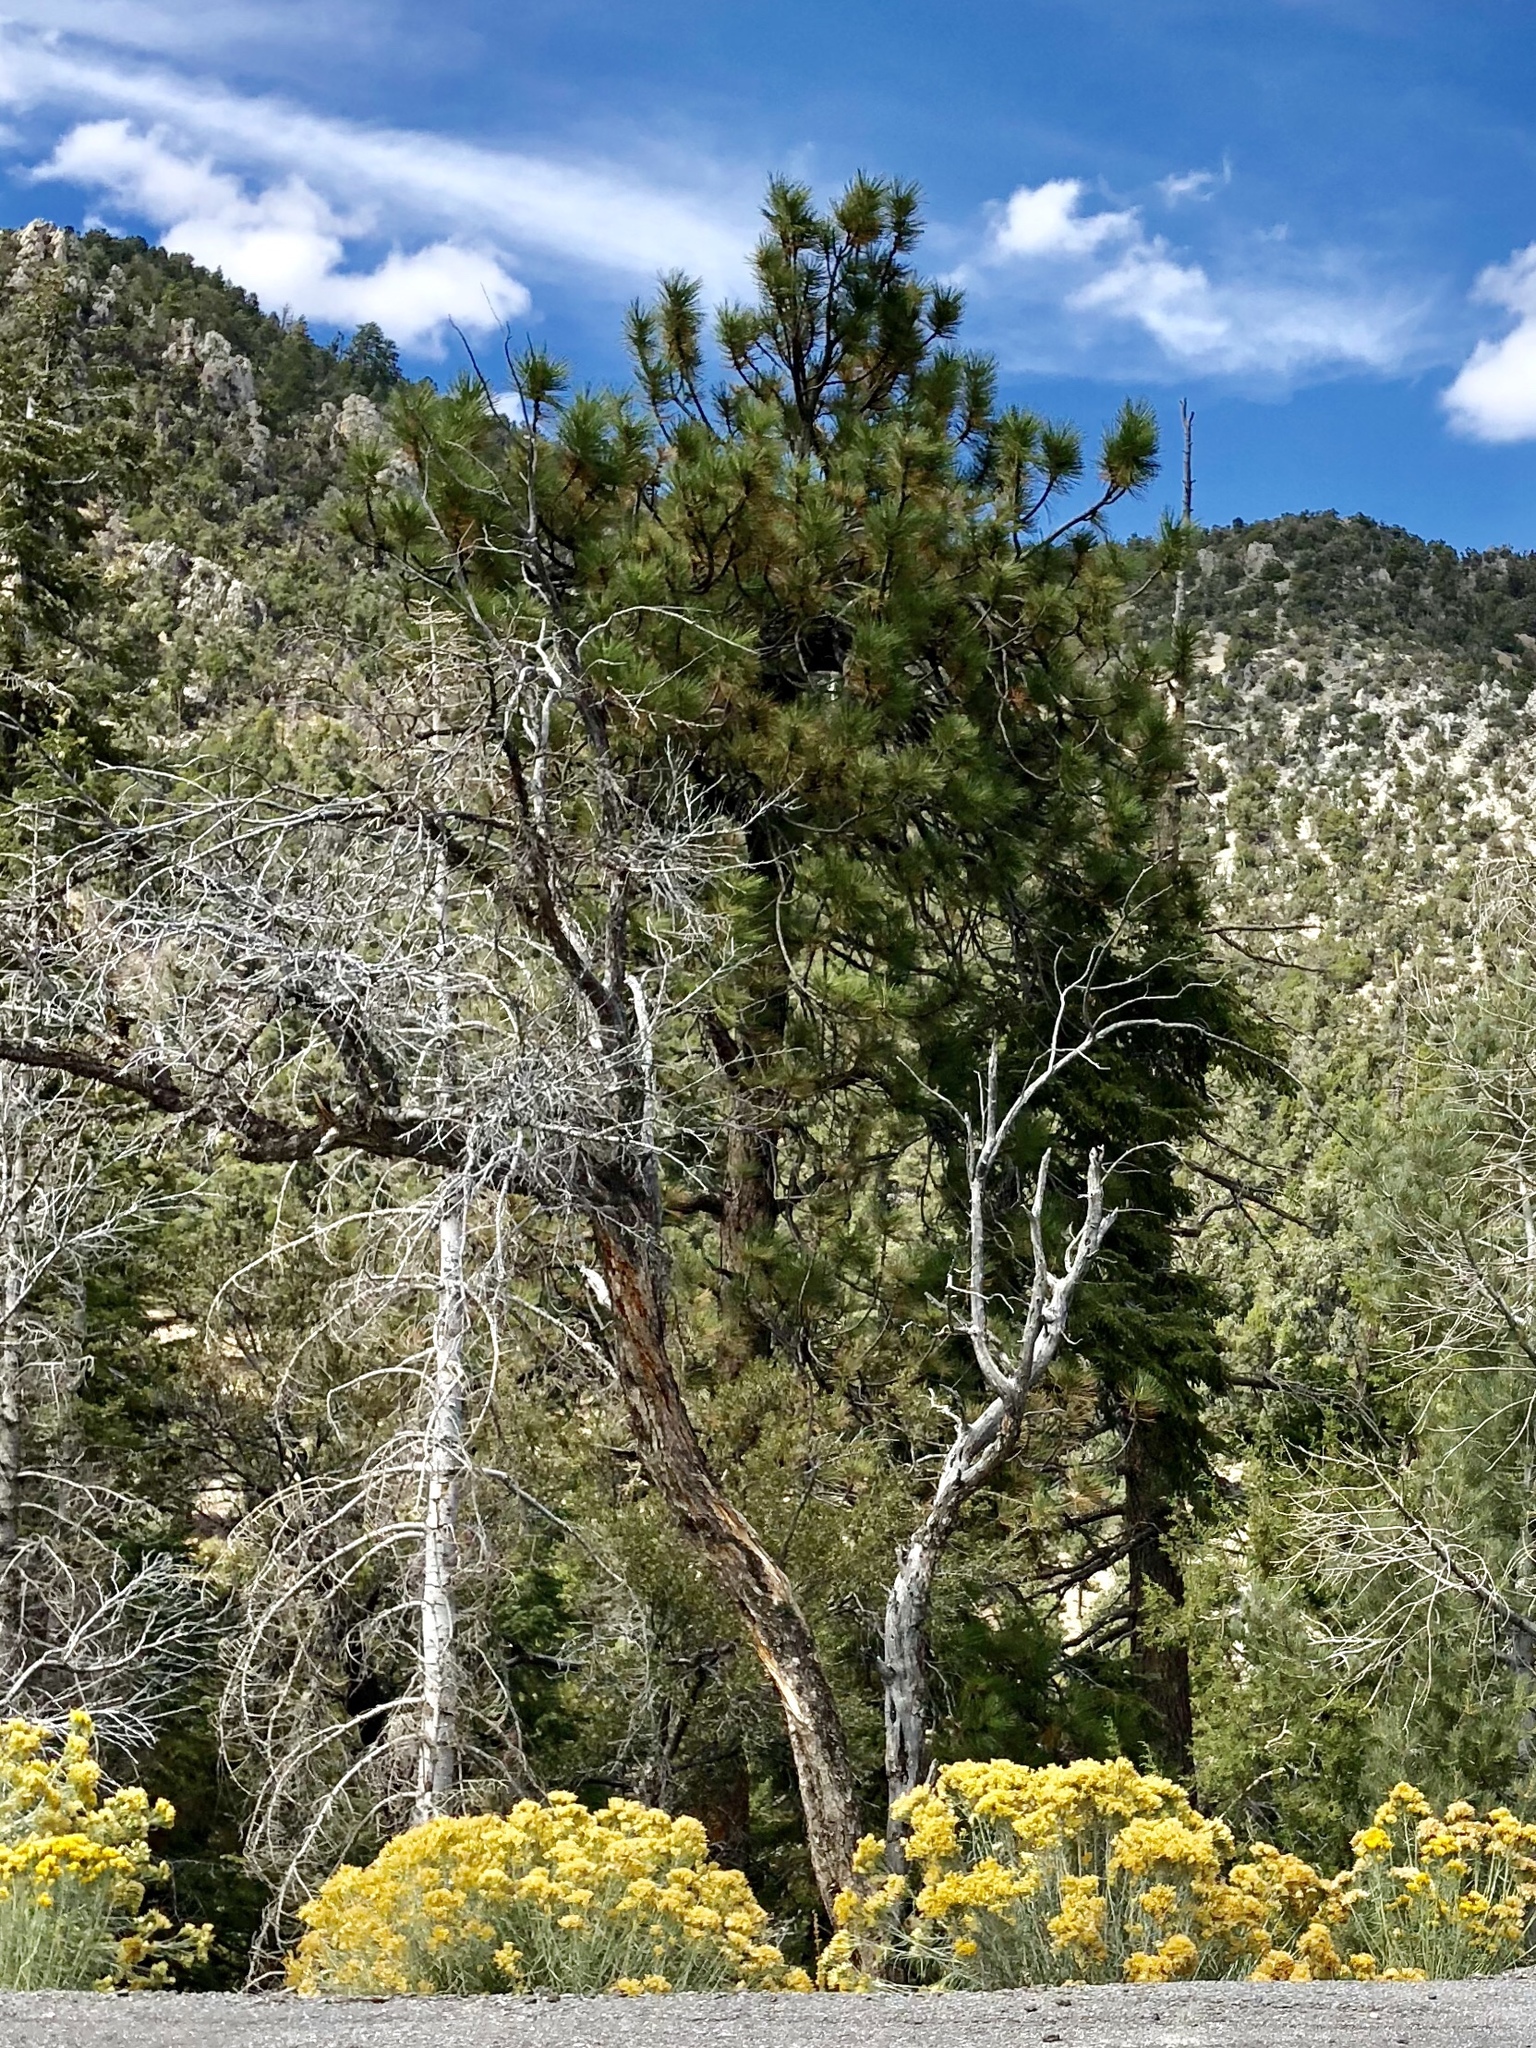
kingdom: Plantae
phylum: Tracheophyta
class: Pinopsida
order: Pinales
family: Pinaceae
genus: Pinus
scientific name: Pinus ponderosa
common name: Western yellow-pine
